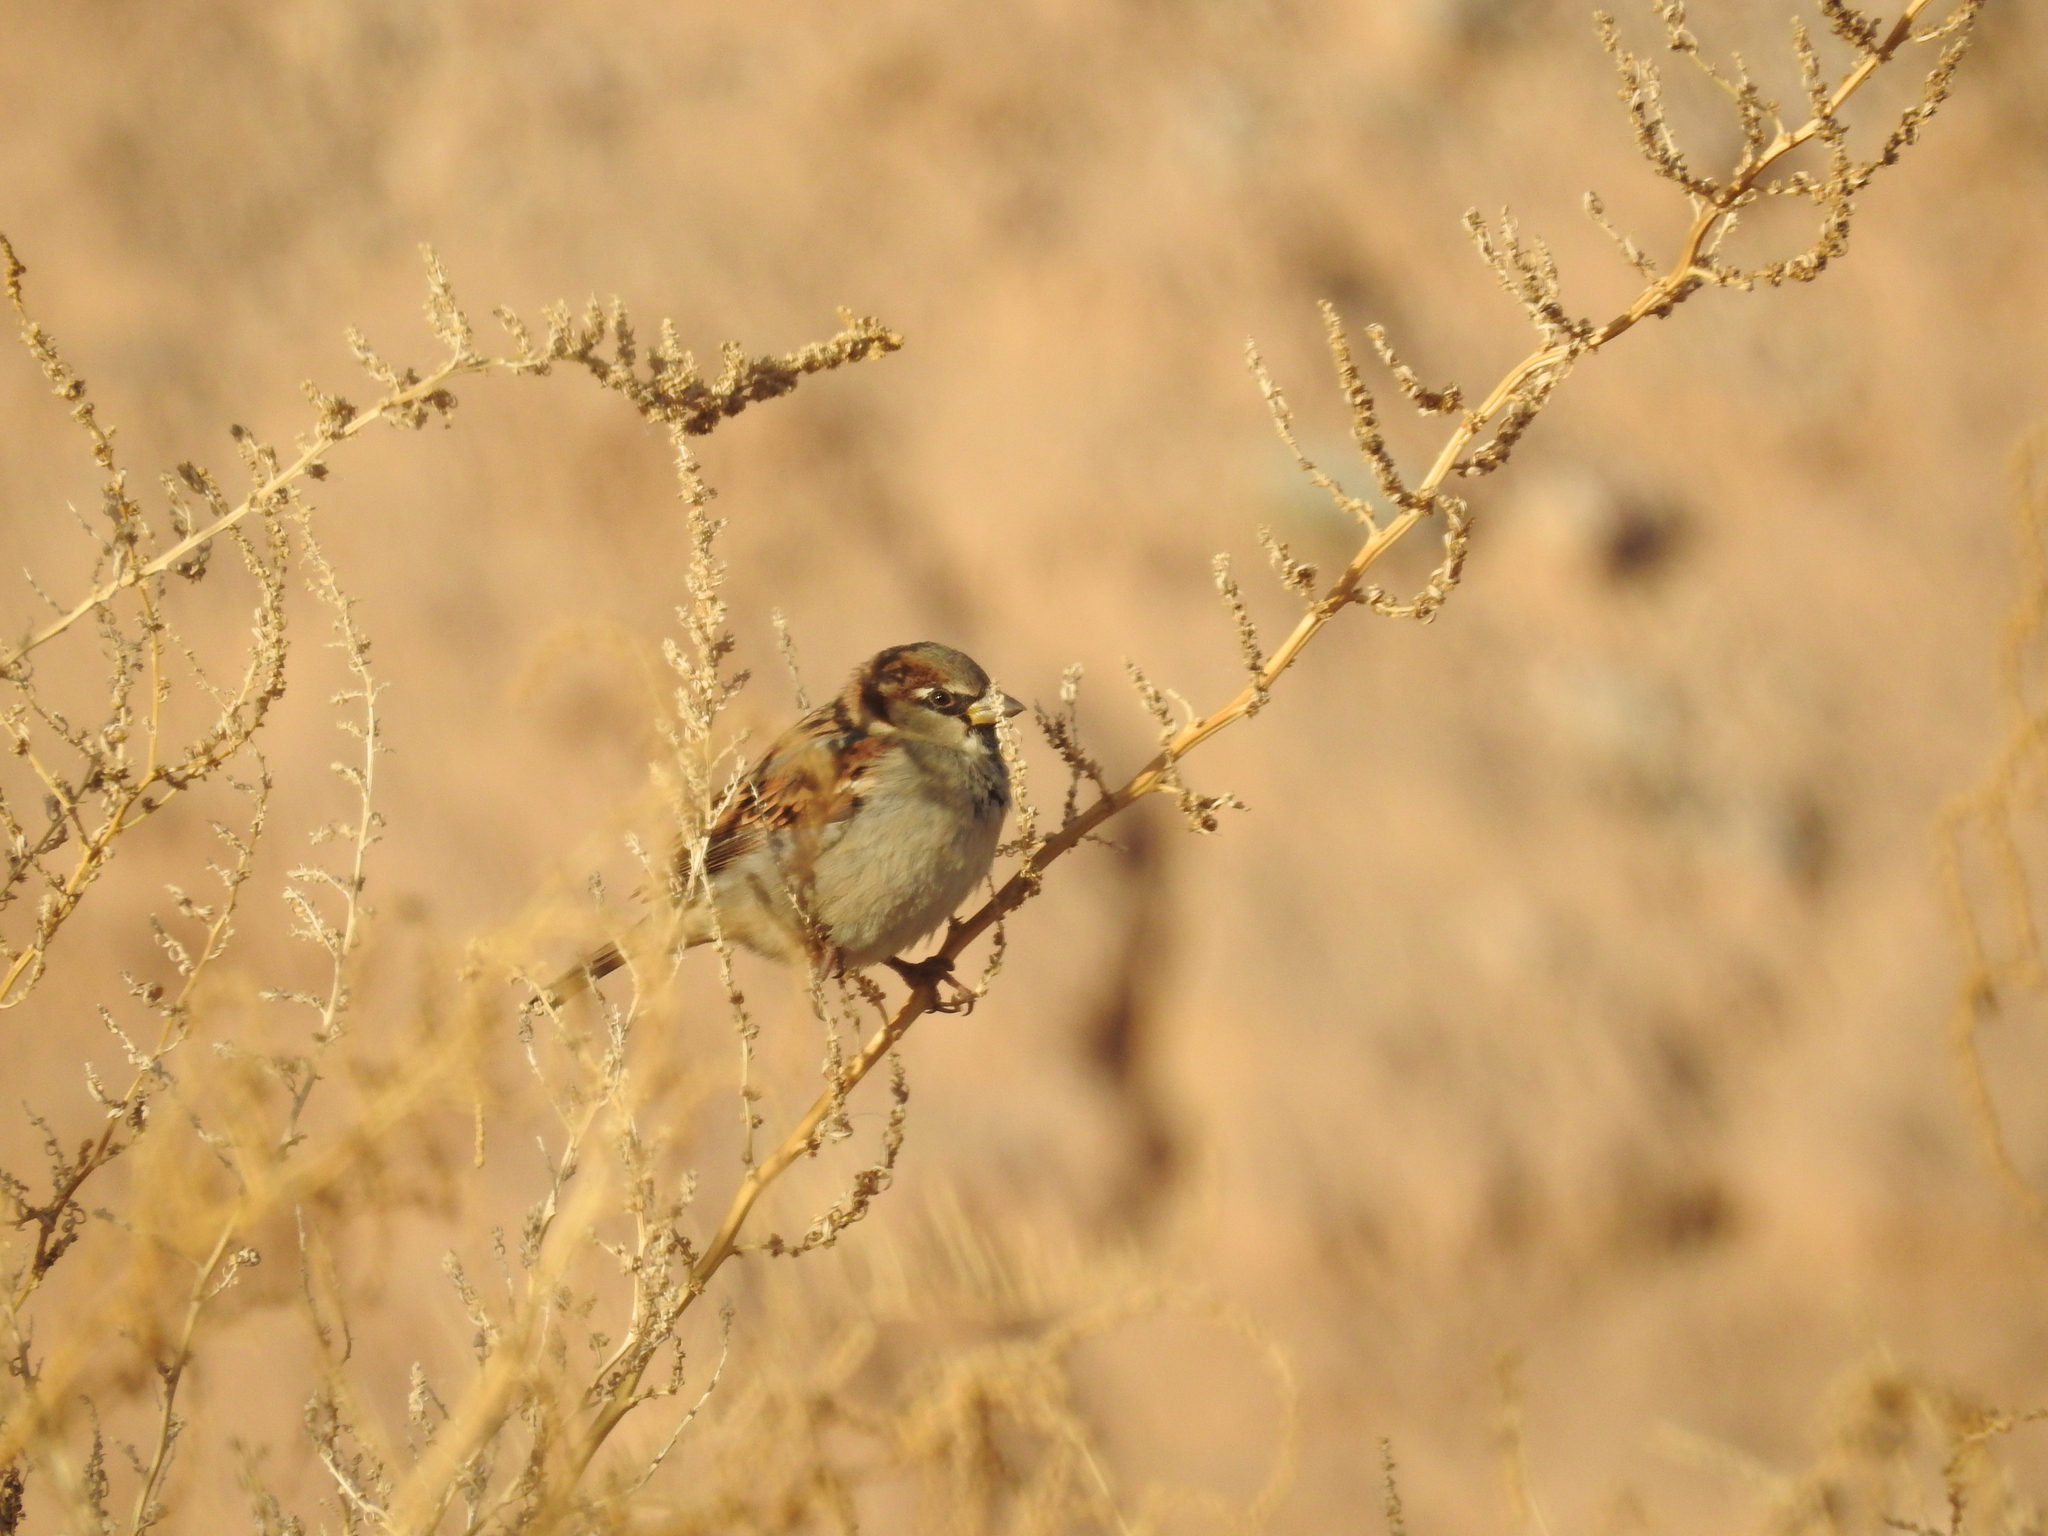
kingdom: Animalia
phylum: Chordata
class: Aves
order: Passeriformes
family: Passeridae
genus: Passer
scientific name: Passer domesticus
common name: House sparrow
